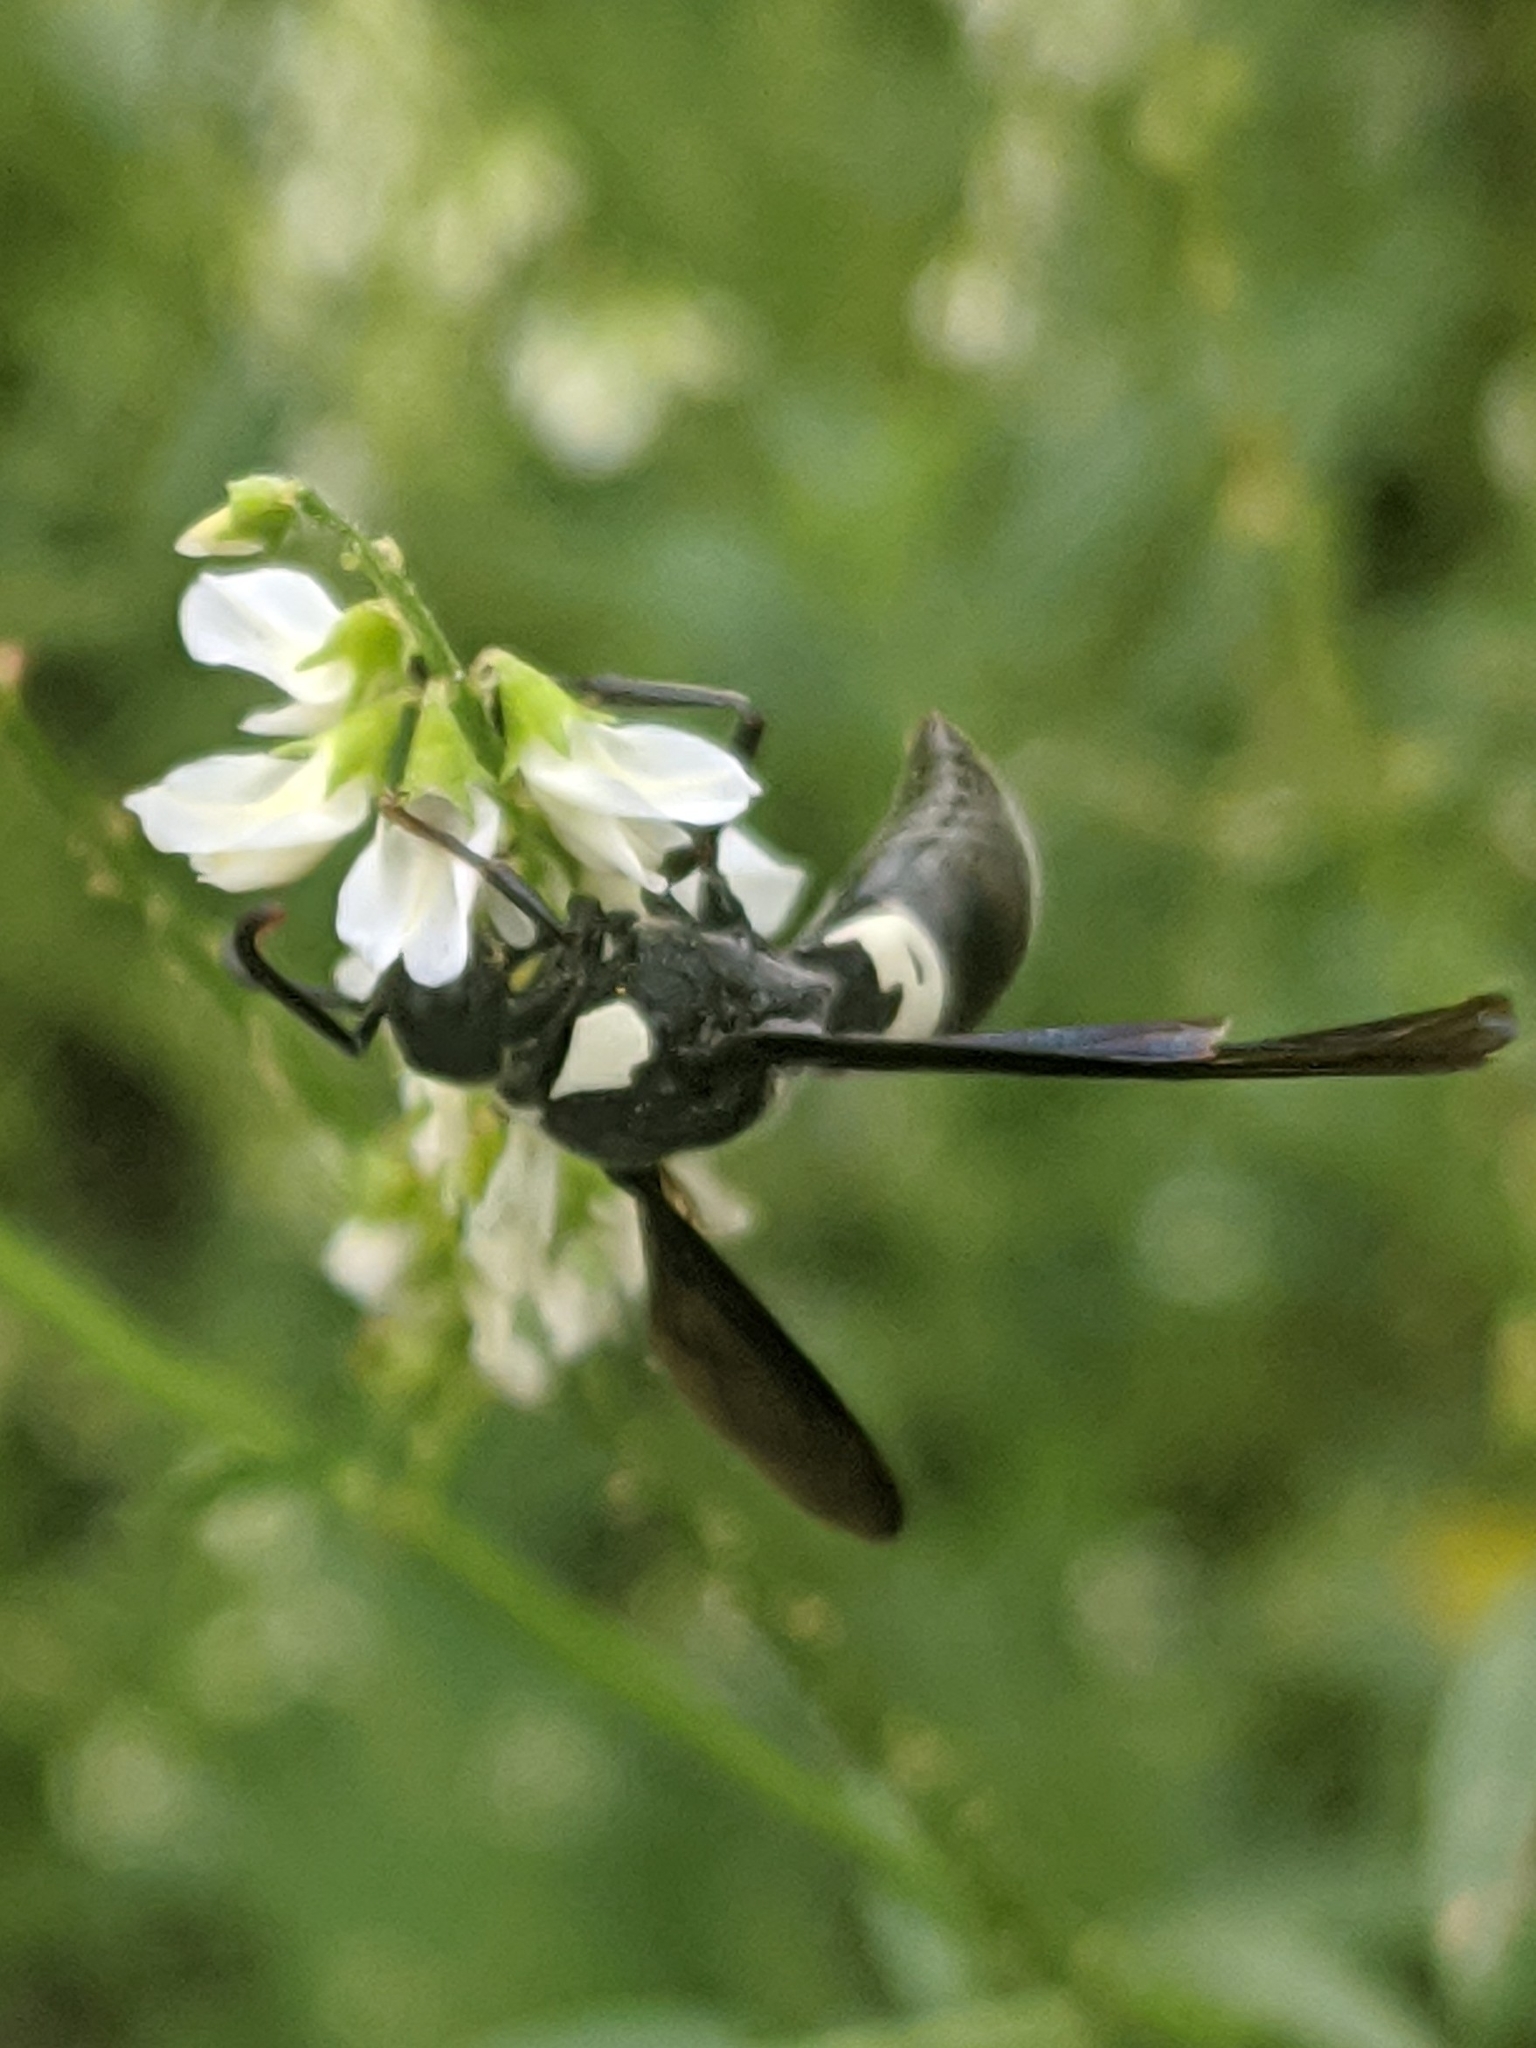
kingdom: Animalia
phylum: Arthropoda
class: Insecta
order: Hymenoptera
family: Eumenidae
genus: Monobia
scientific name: Monobia quadridens
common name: Four-toothed mason wasp
